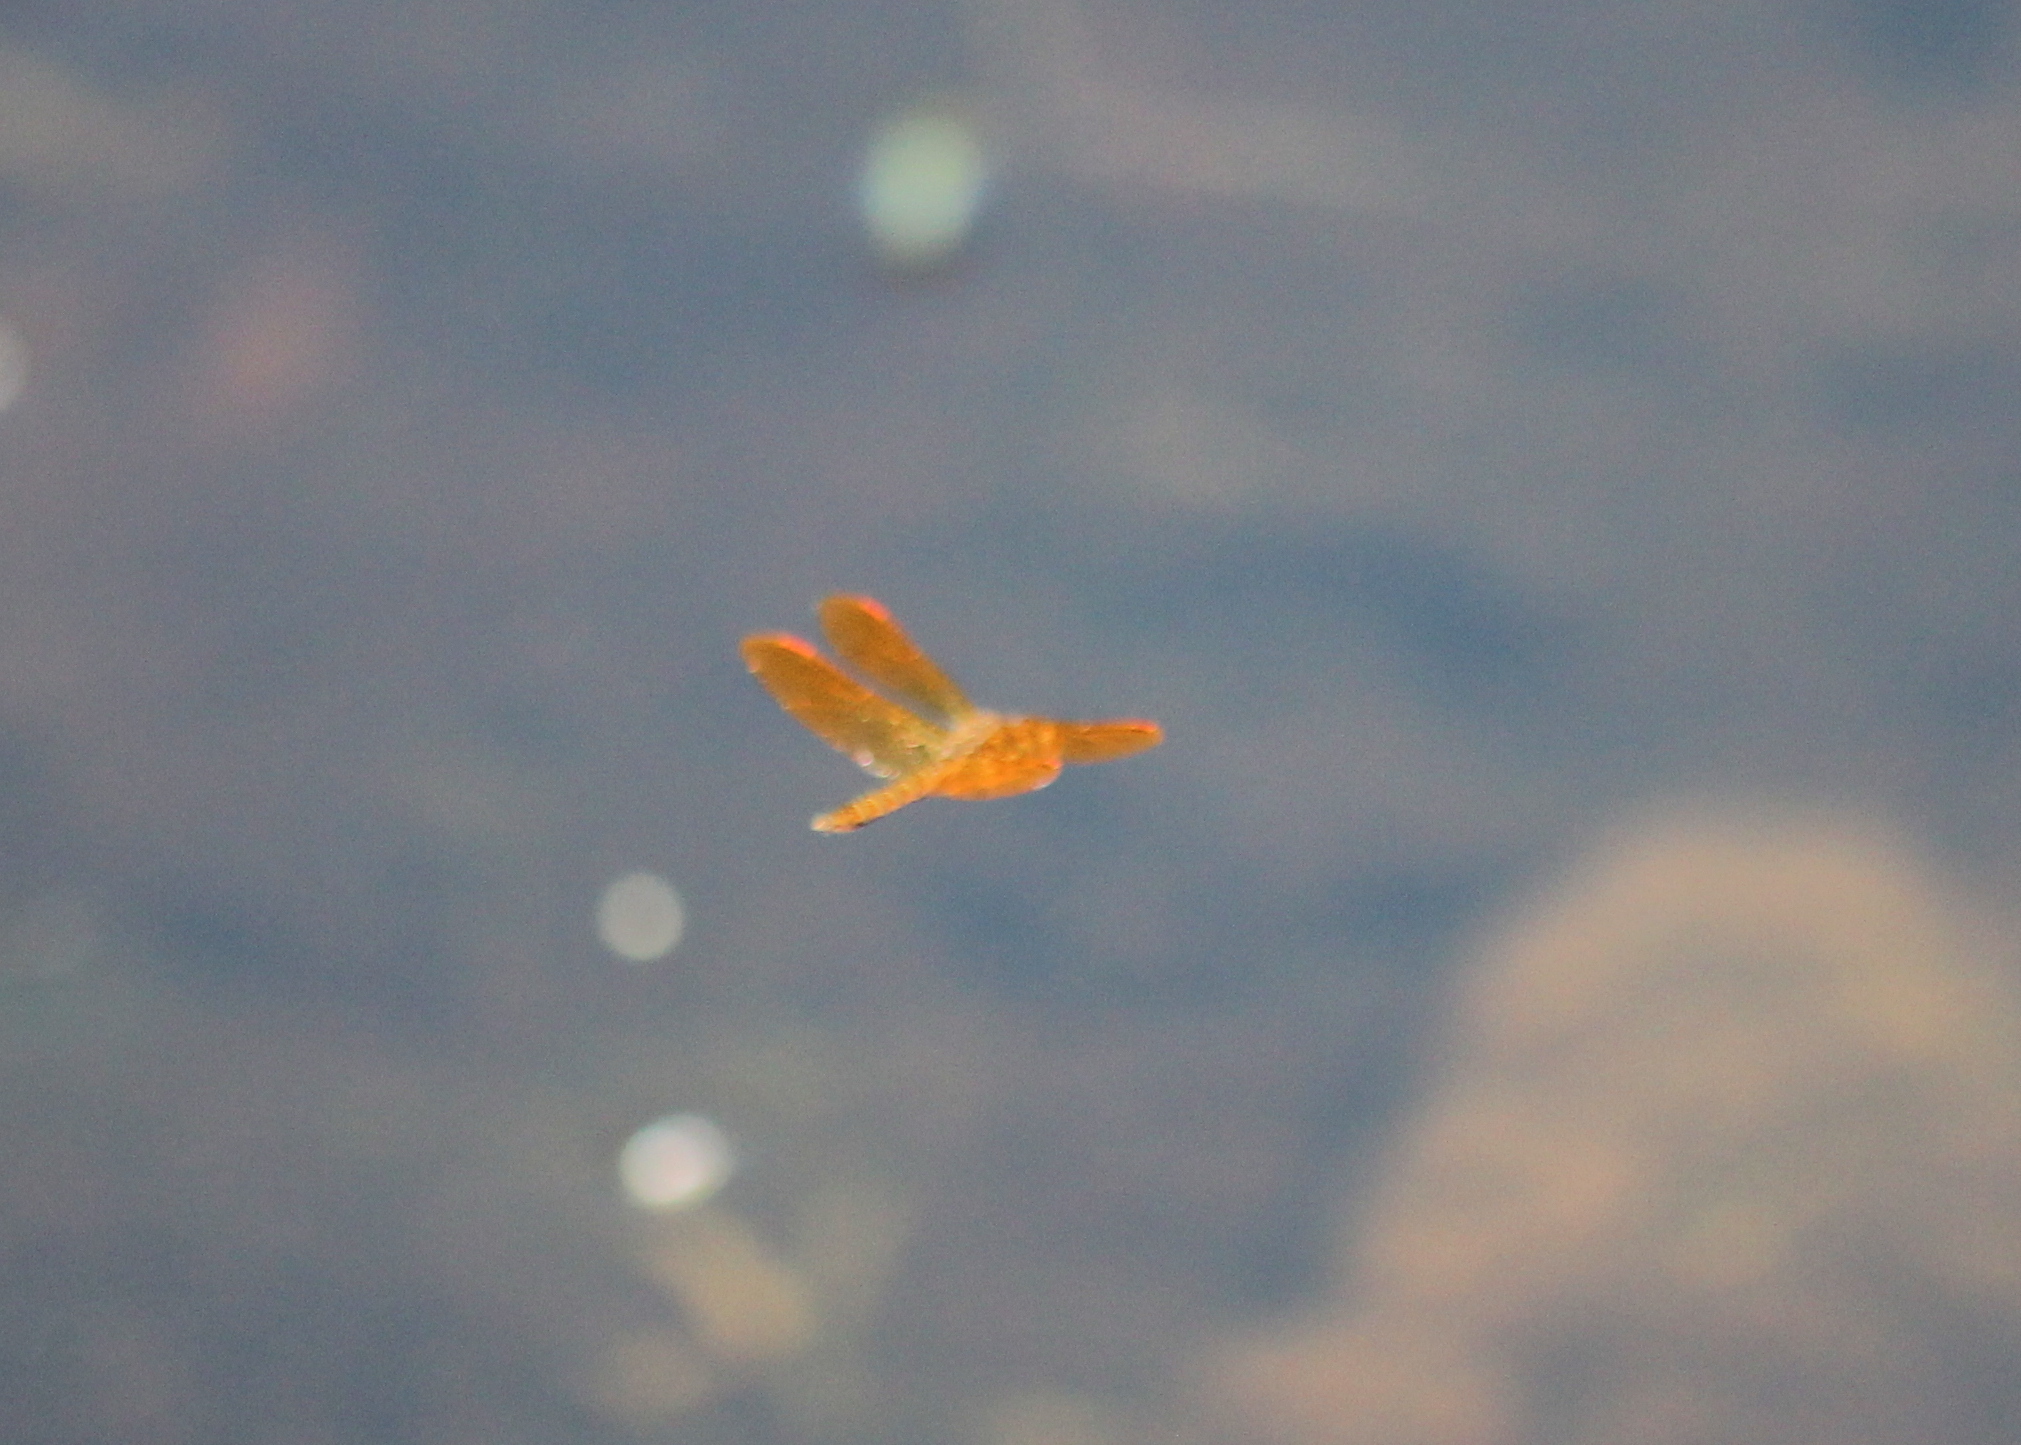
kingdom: Animalia
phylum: Arthropoda
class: Insecta
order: Odonata
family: Libellulidae
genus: Perithemis
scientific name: Perithemis tenera
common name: Eastern amberwing
